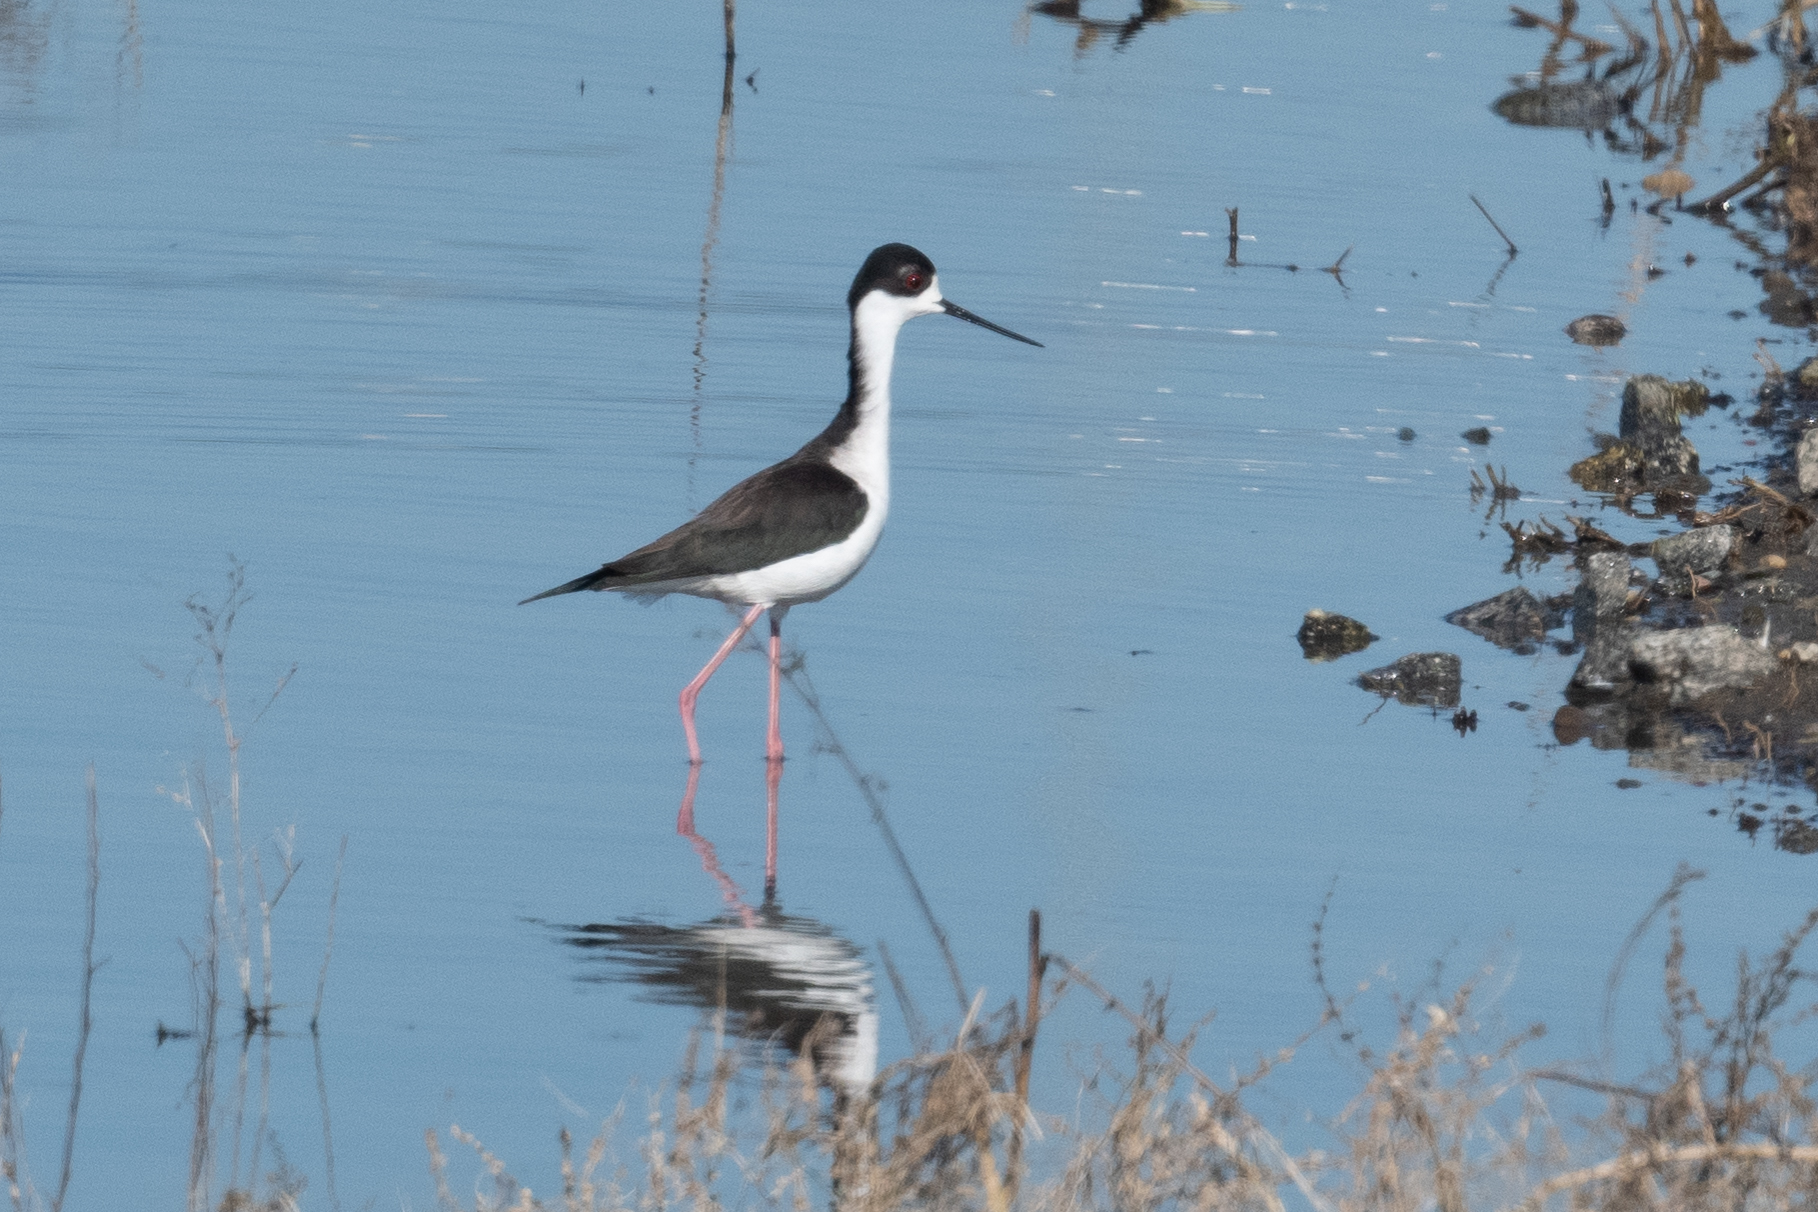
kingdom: Animalia
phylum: Chordata
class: Aves
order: Charadriiformes
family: Recurvirostridae
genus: Himantopus
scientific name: Himantopus mexicanus
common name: Black-necked stilt
